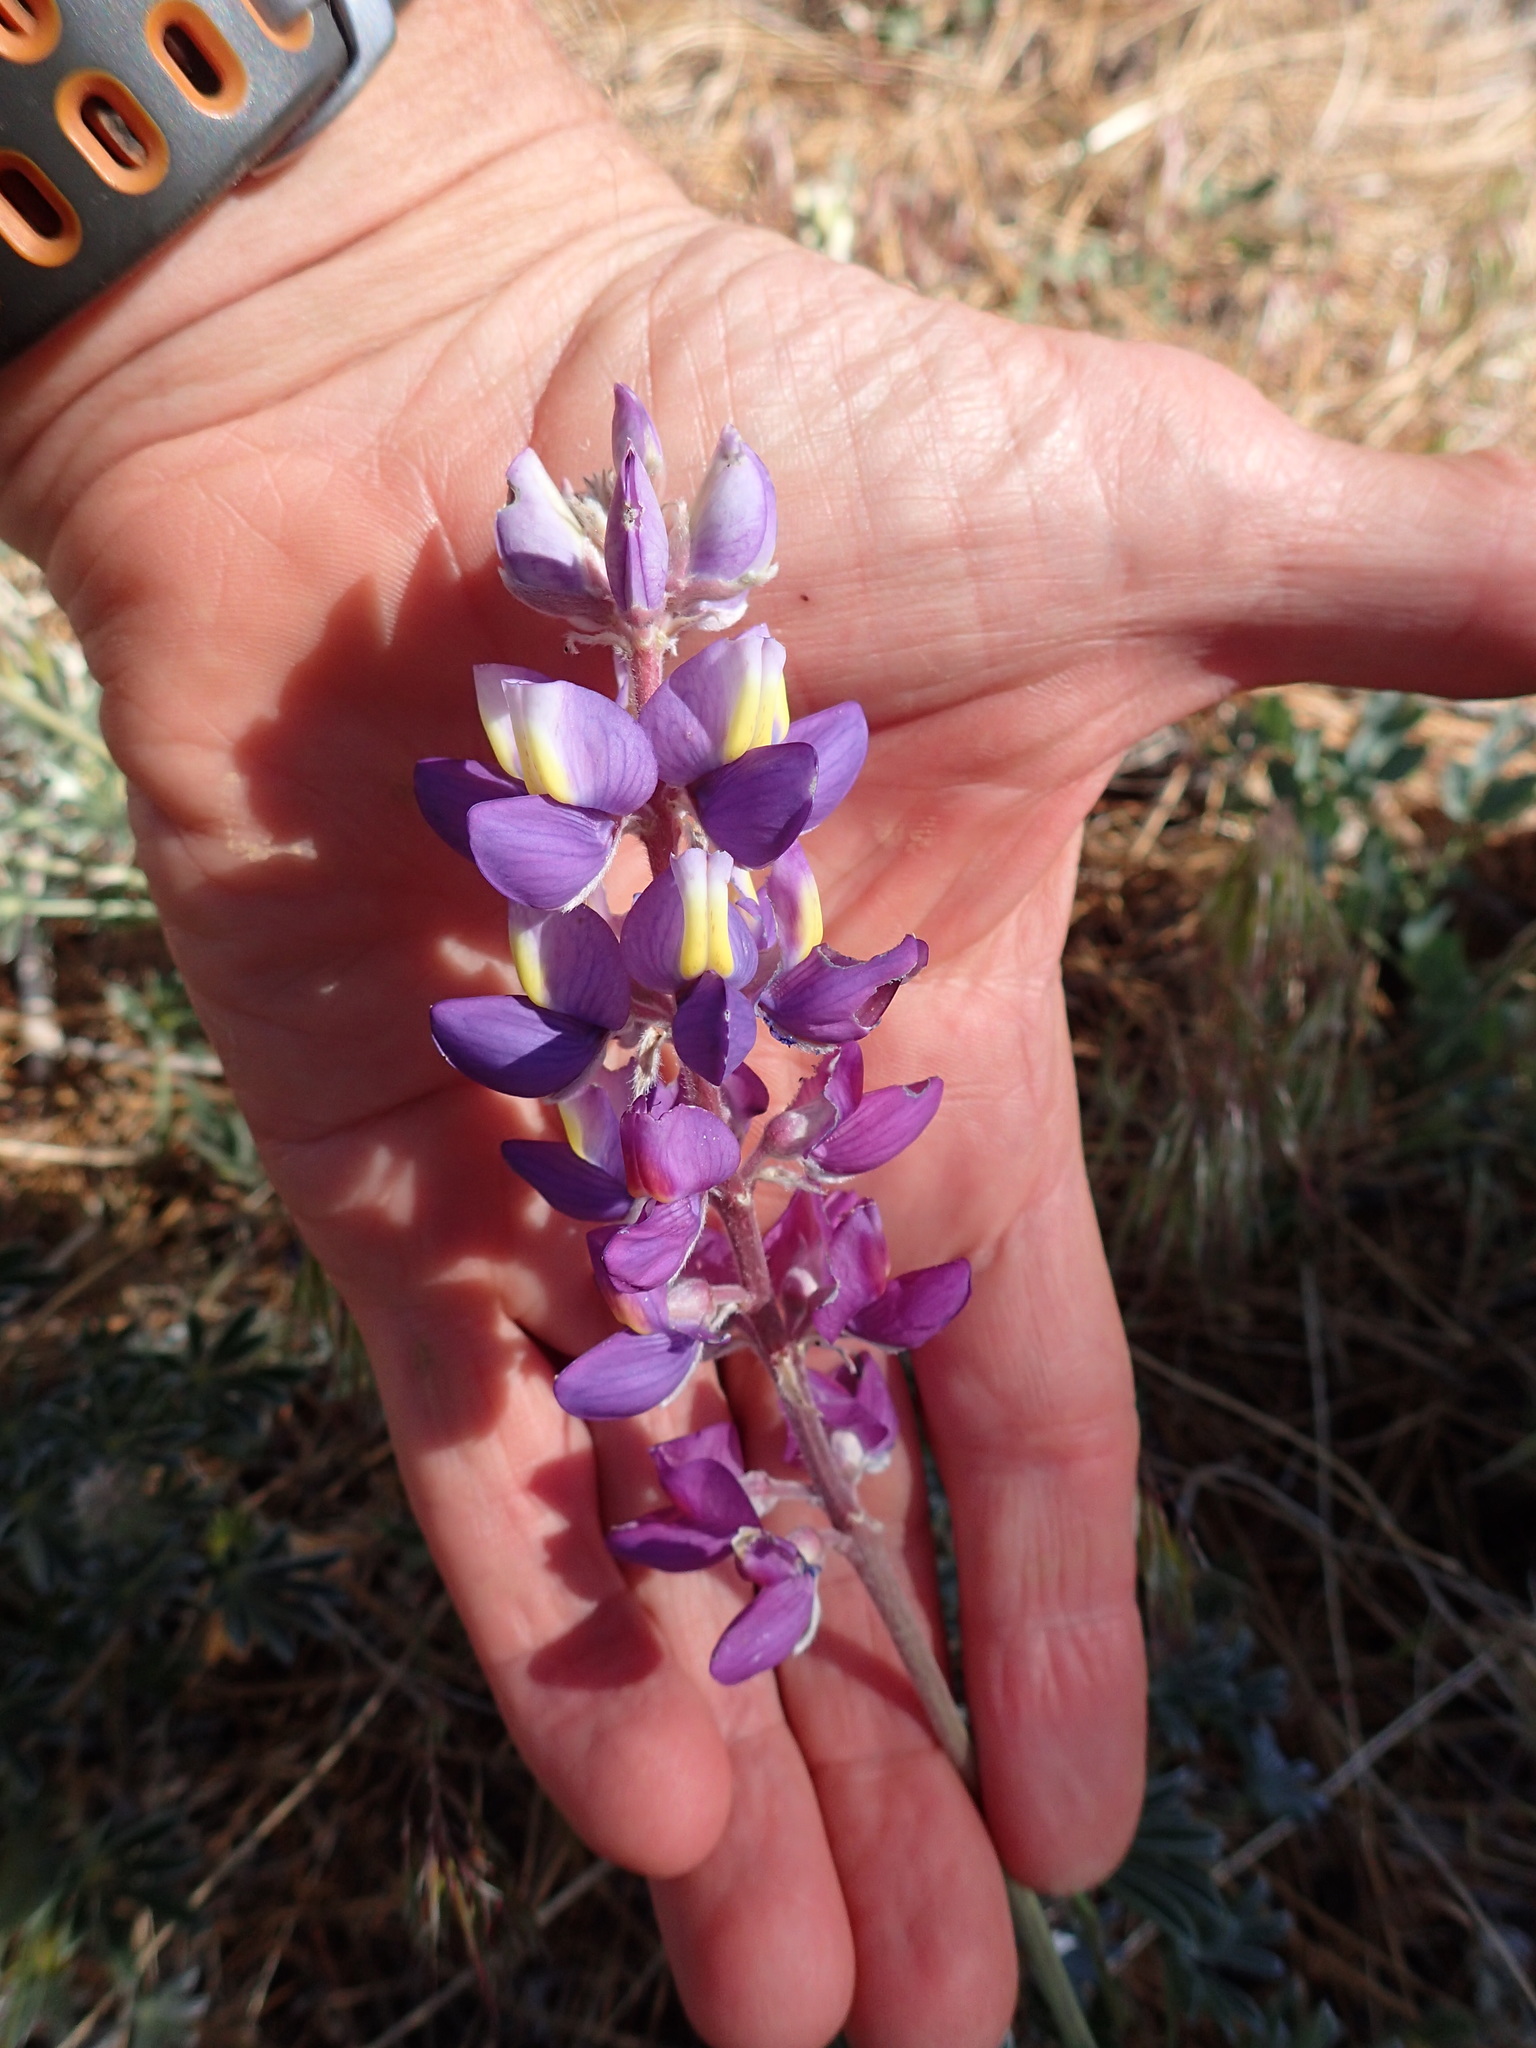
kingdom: Plantae
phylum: Tracheophyta
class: Magnoliopsida
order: Fabales
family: Fabaceae
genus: Lupinus
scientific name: Lupinus excubitus
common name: Grape soda lupine
